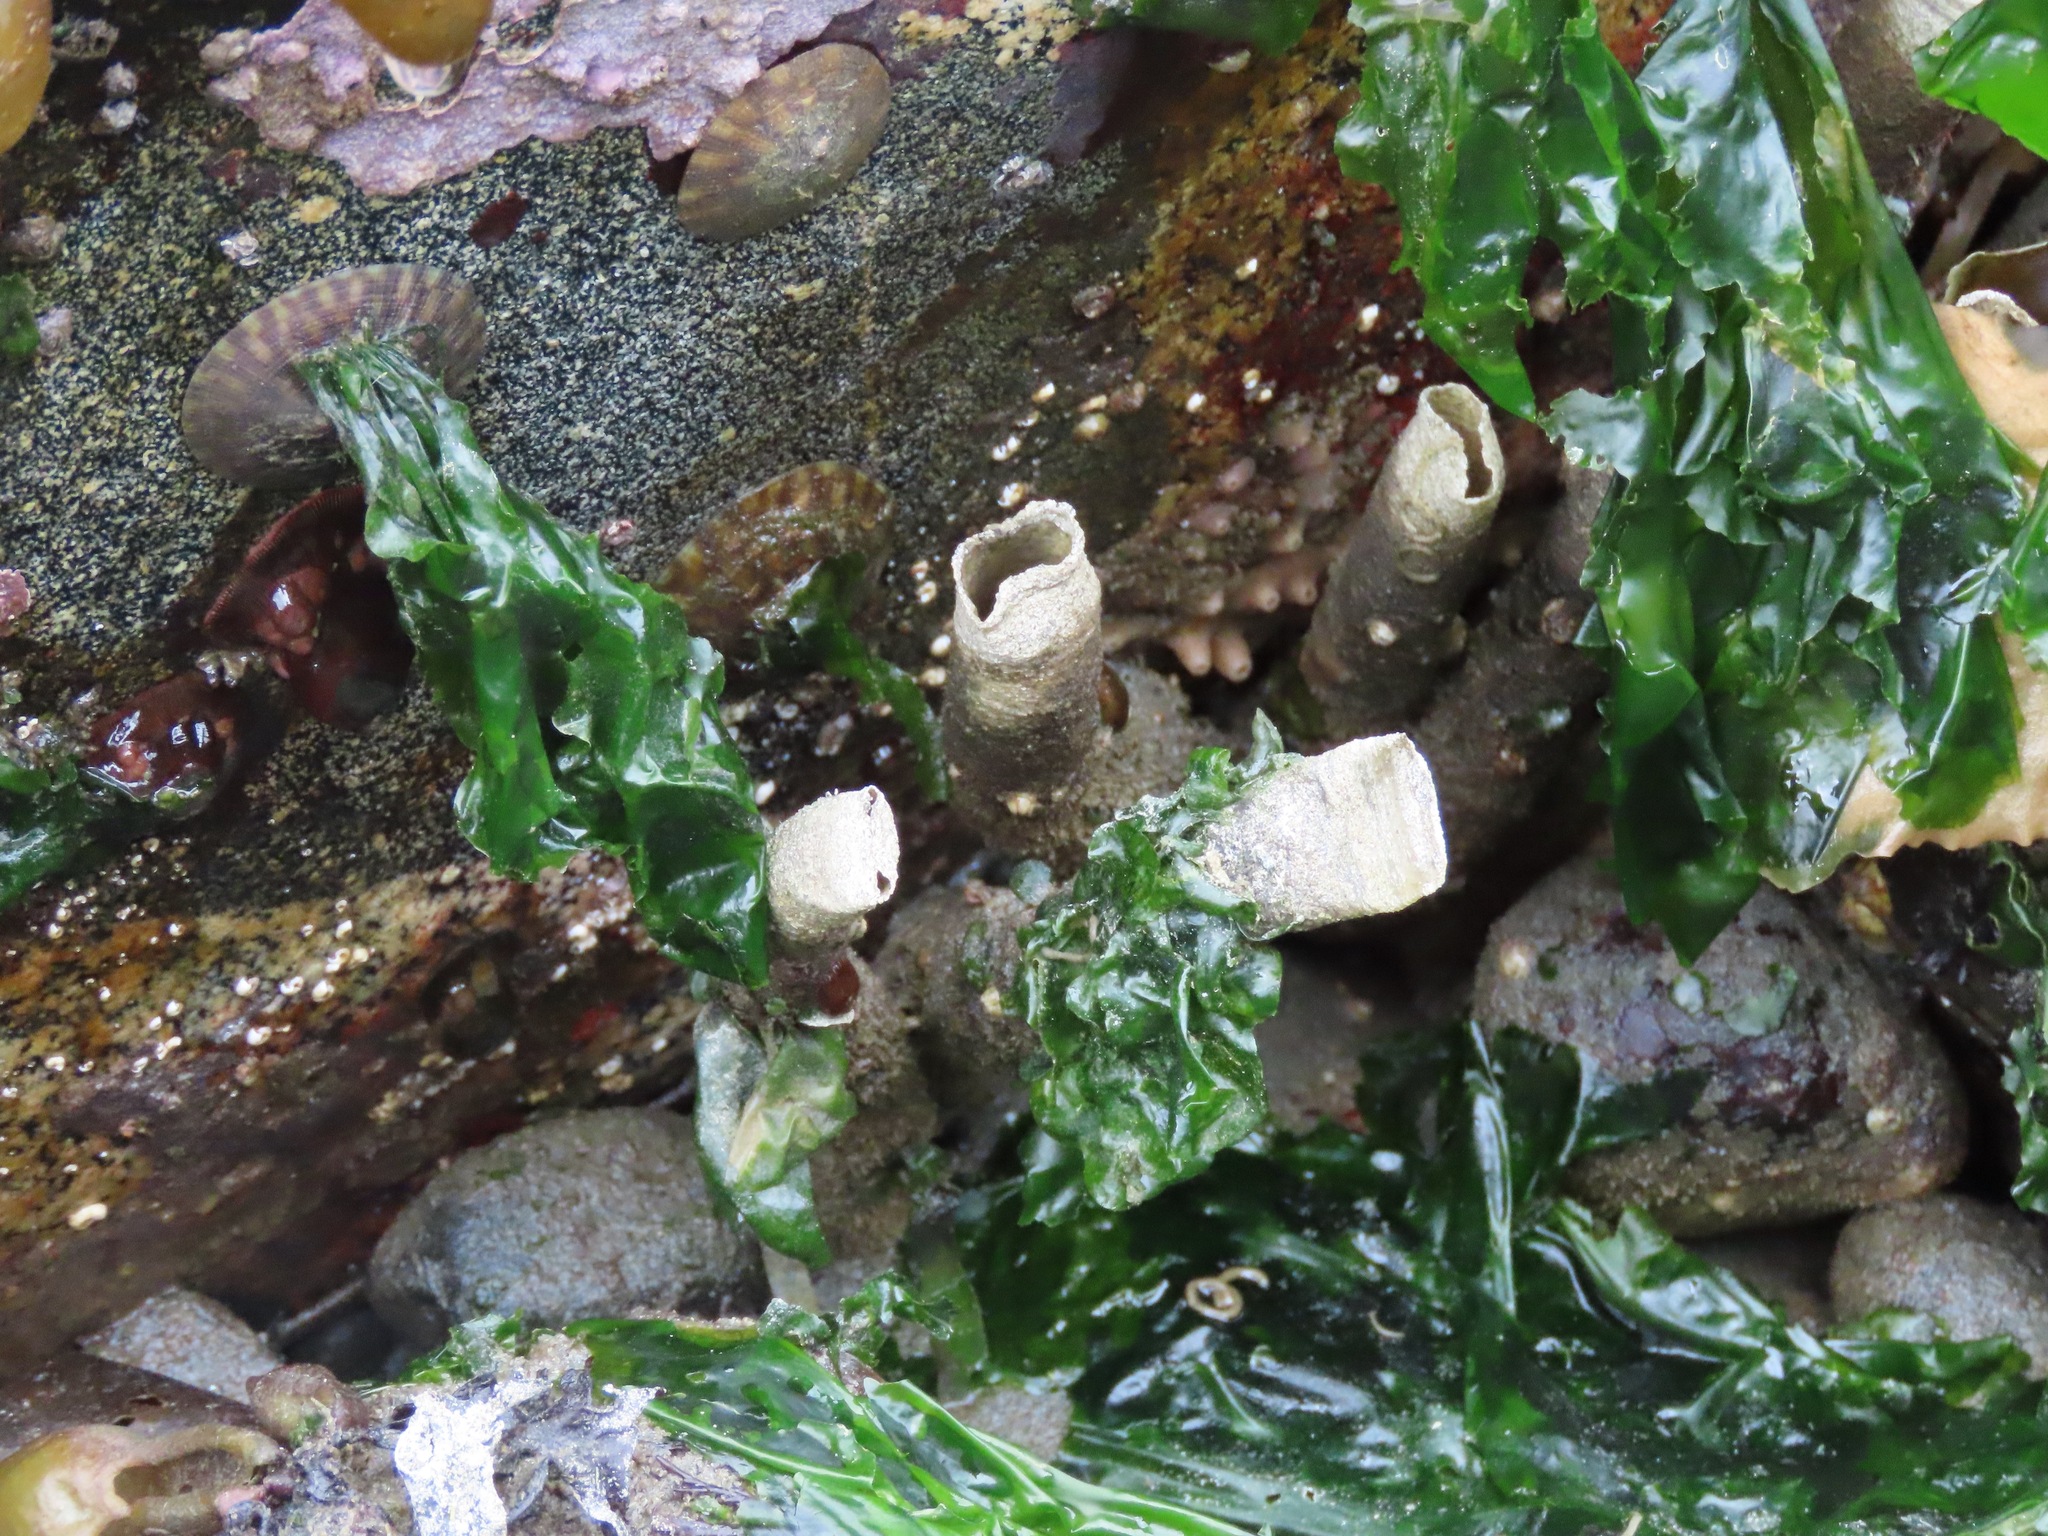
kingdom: Animalia
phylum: Annelida
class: Polychaeta
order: Sabellida
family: Sabellidae
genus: Eudistylia
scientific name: Eudistylia vancouveri
